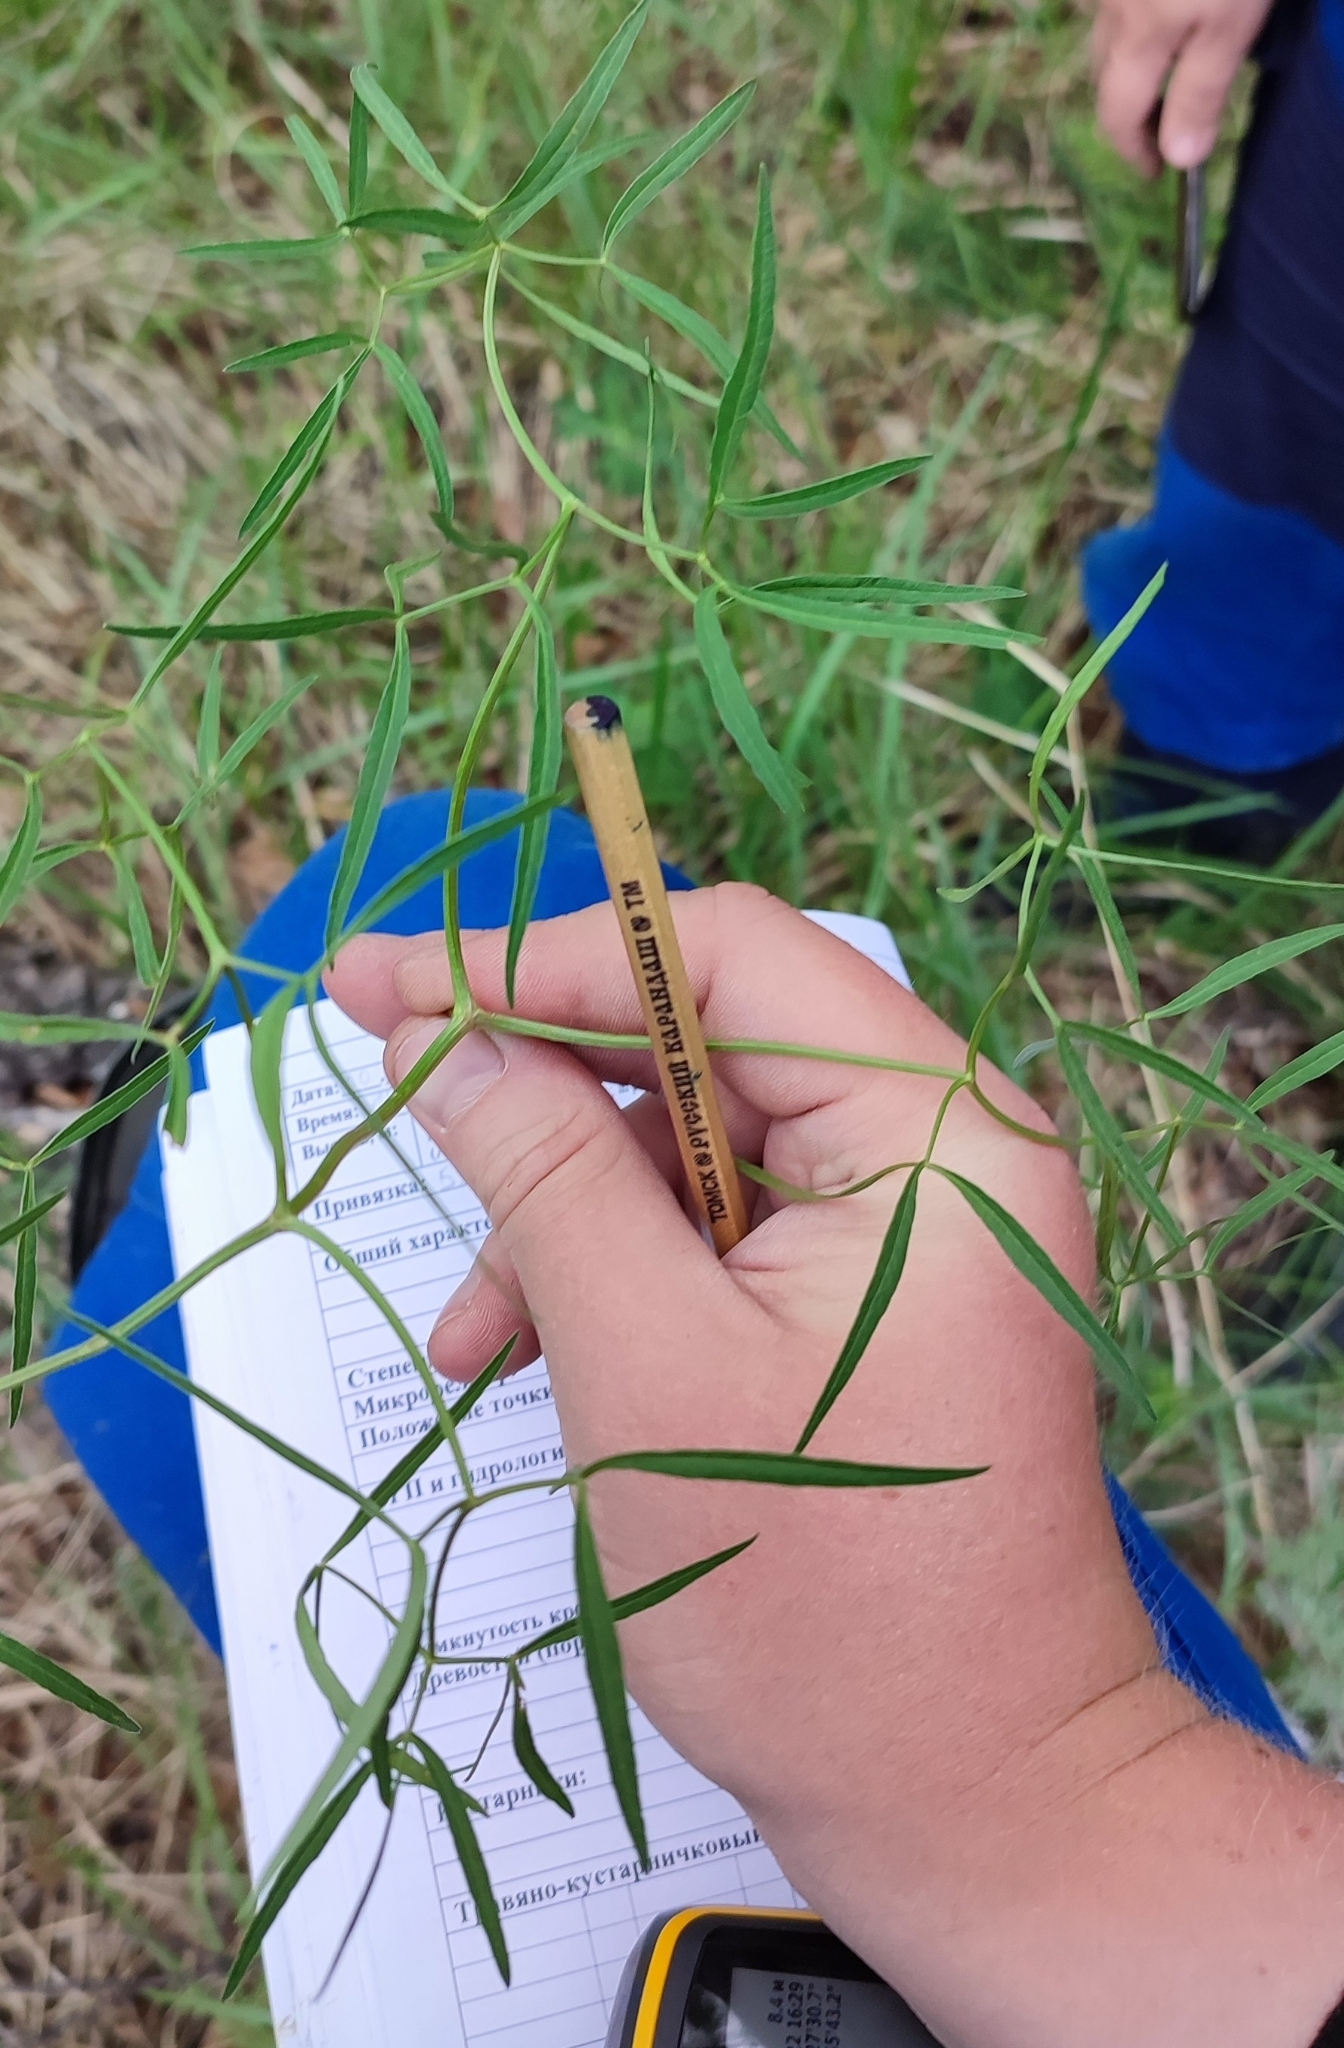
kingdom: Plantae
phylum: Tracheophyta
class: Magnoliopsida
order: Apiales
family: Apiaceae
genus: Cenolophium
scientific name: Cenolophium fischeri
